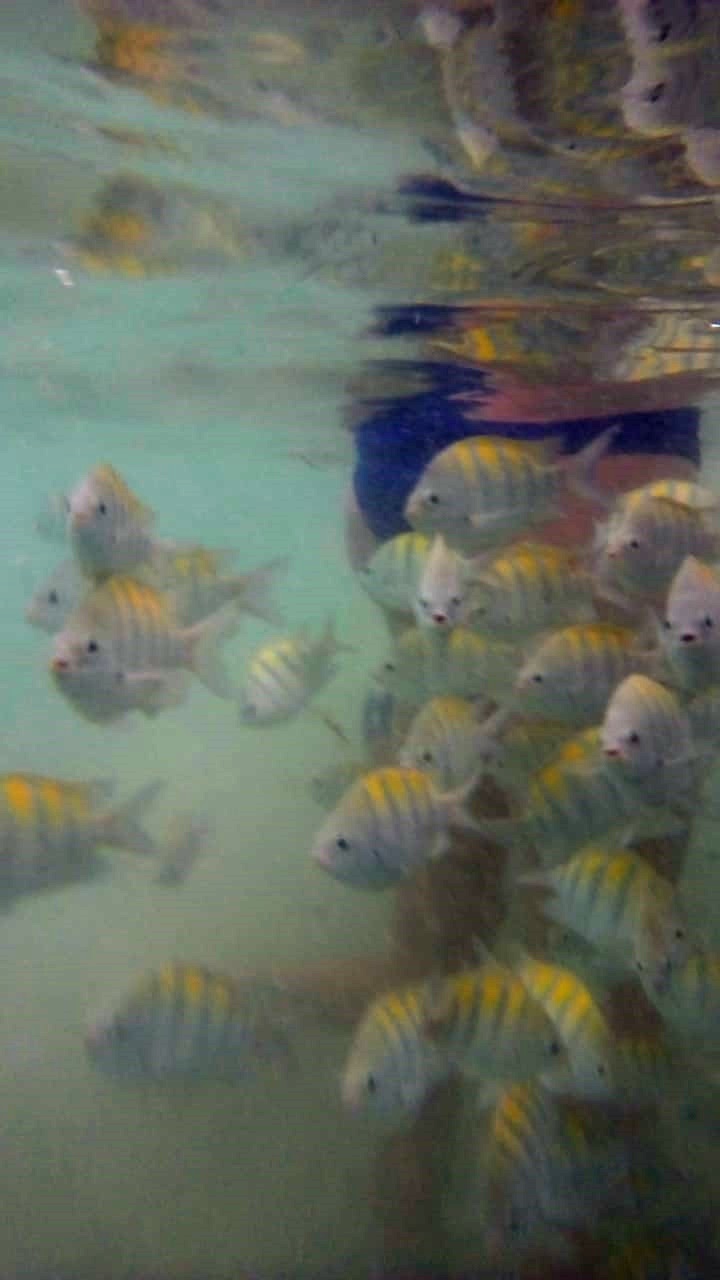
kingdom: Animalia
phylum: Chordata
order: Perciformes
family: Pomacentridae
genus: Abudefduf
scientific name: Abudefduf saxatilis
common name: Sergeant major
